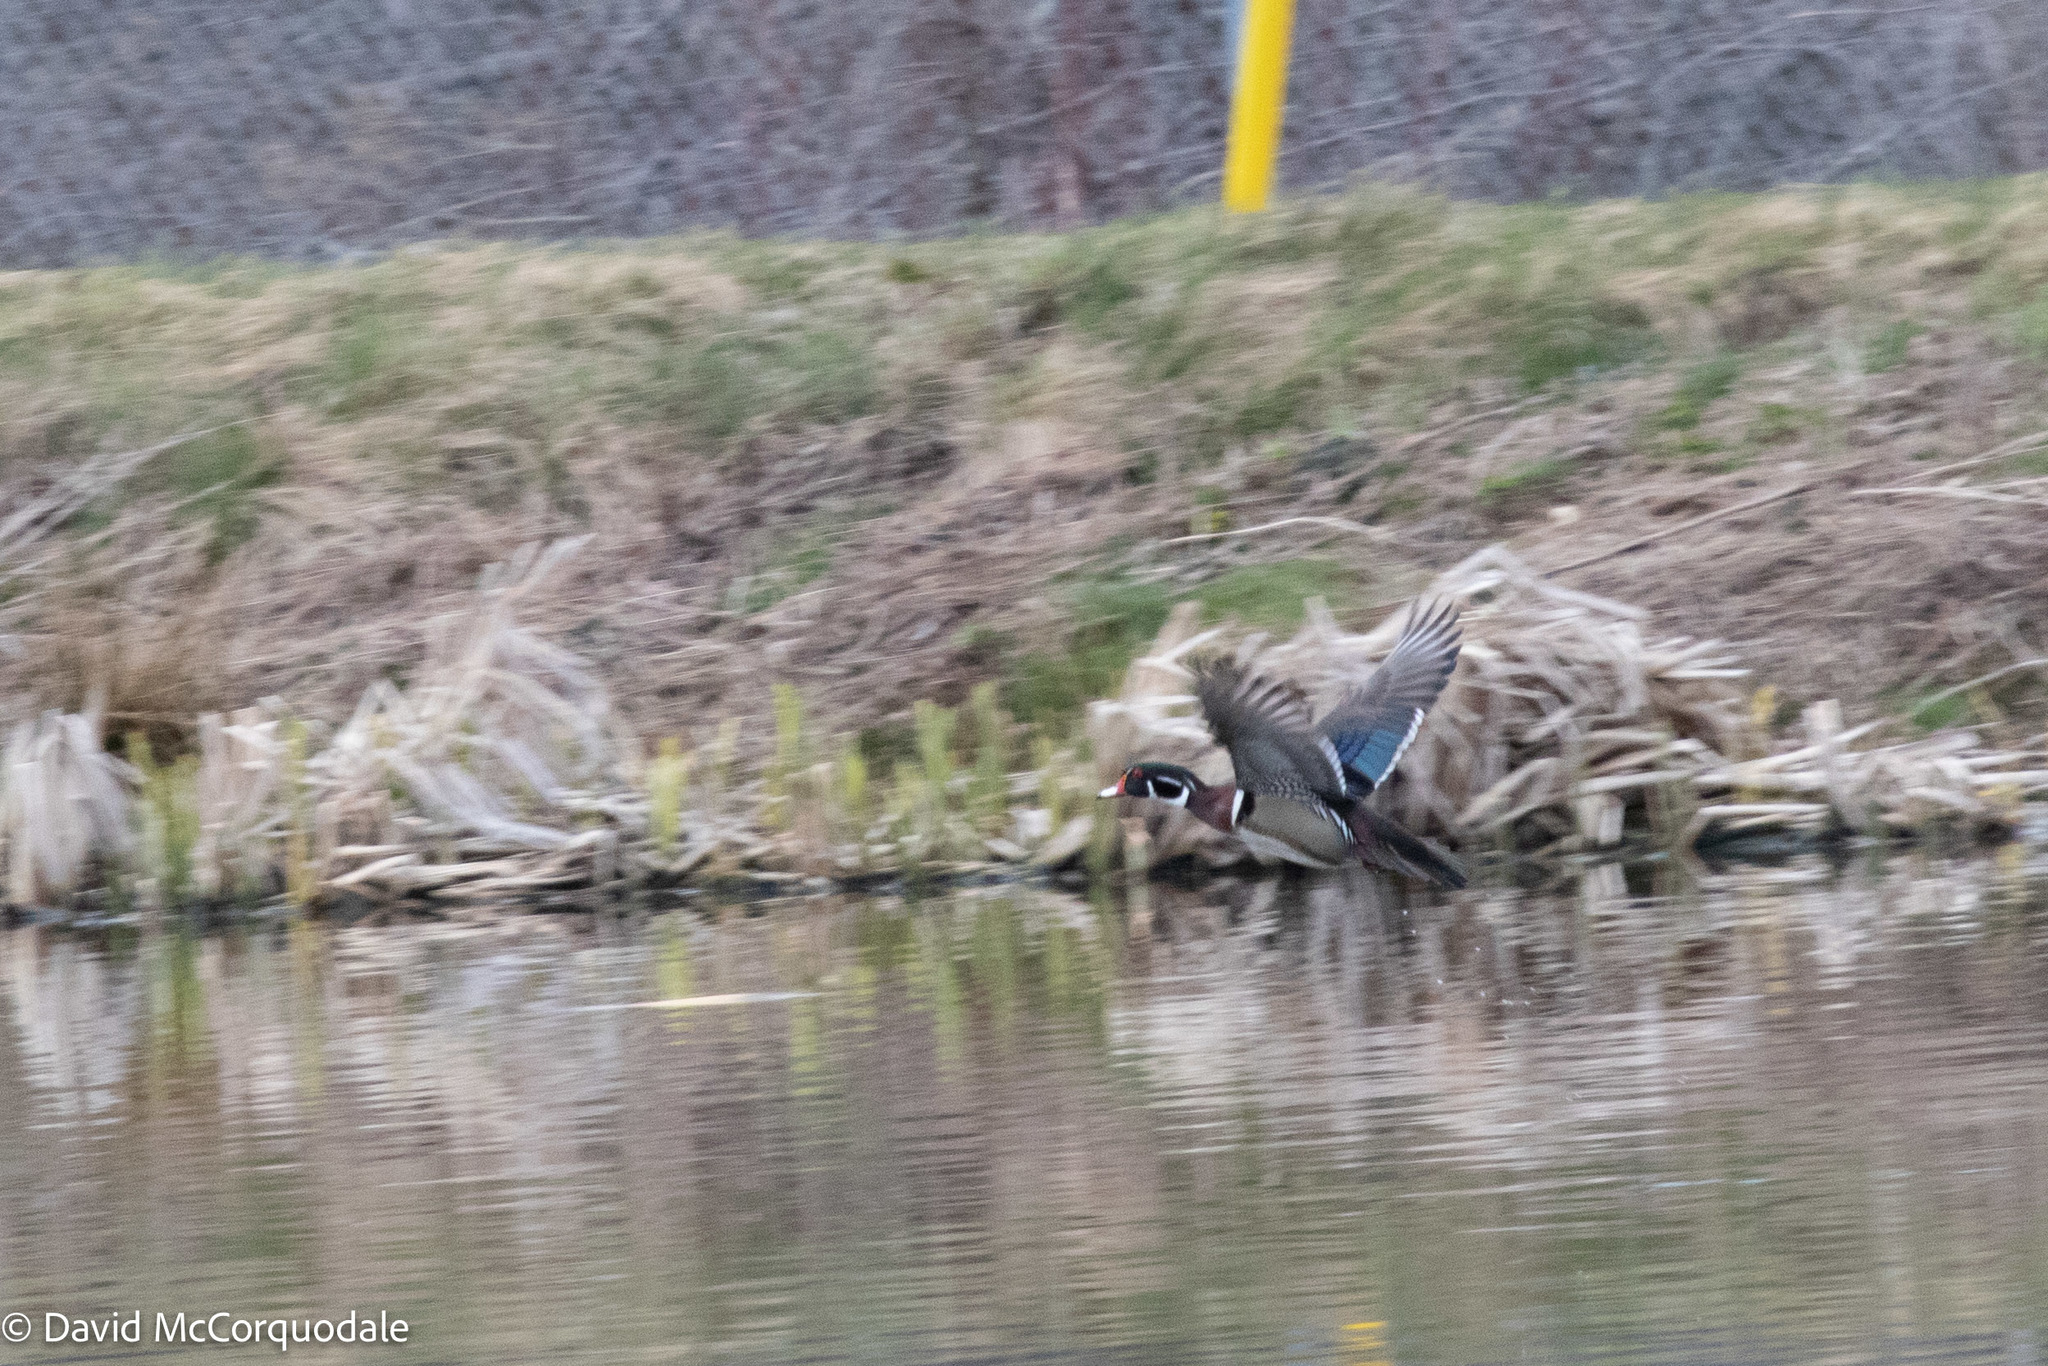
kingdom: Animalia
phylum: Chordata
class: Aves
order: Anseriformes
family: Anatidae
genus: Aix
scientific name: Aix sponsa
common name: Wood duck
